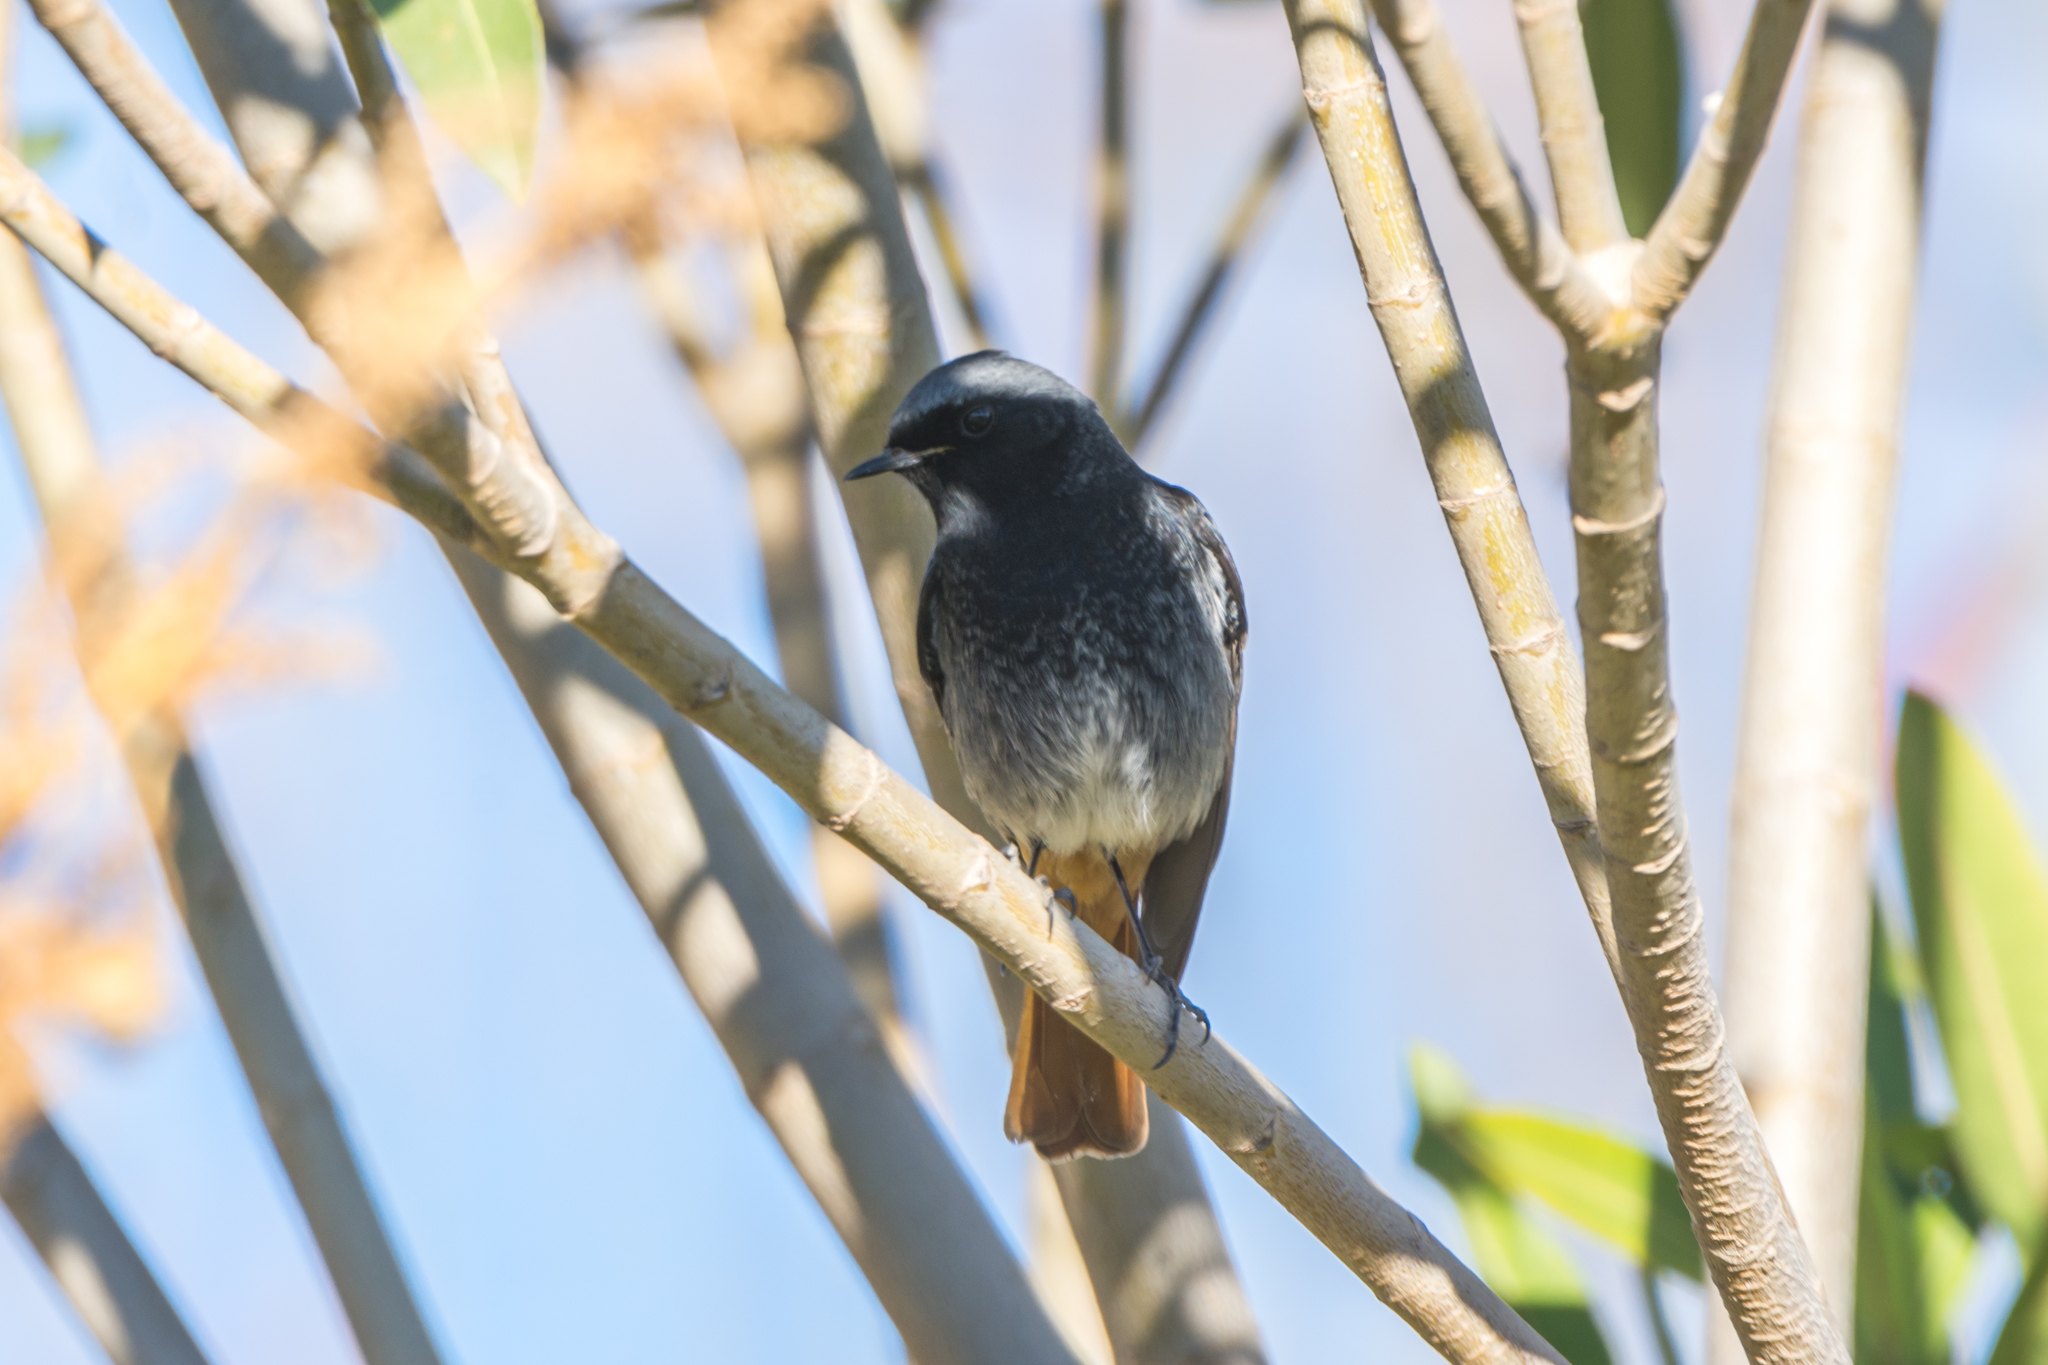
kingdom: Animalia
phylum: Chordata
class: Aves
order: Passeriformes
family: Muscicapidae
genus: Phoenicurus
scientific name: Phoenicurus ochruros
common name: Black redstart
